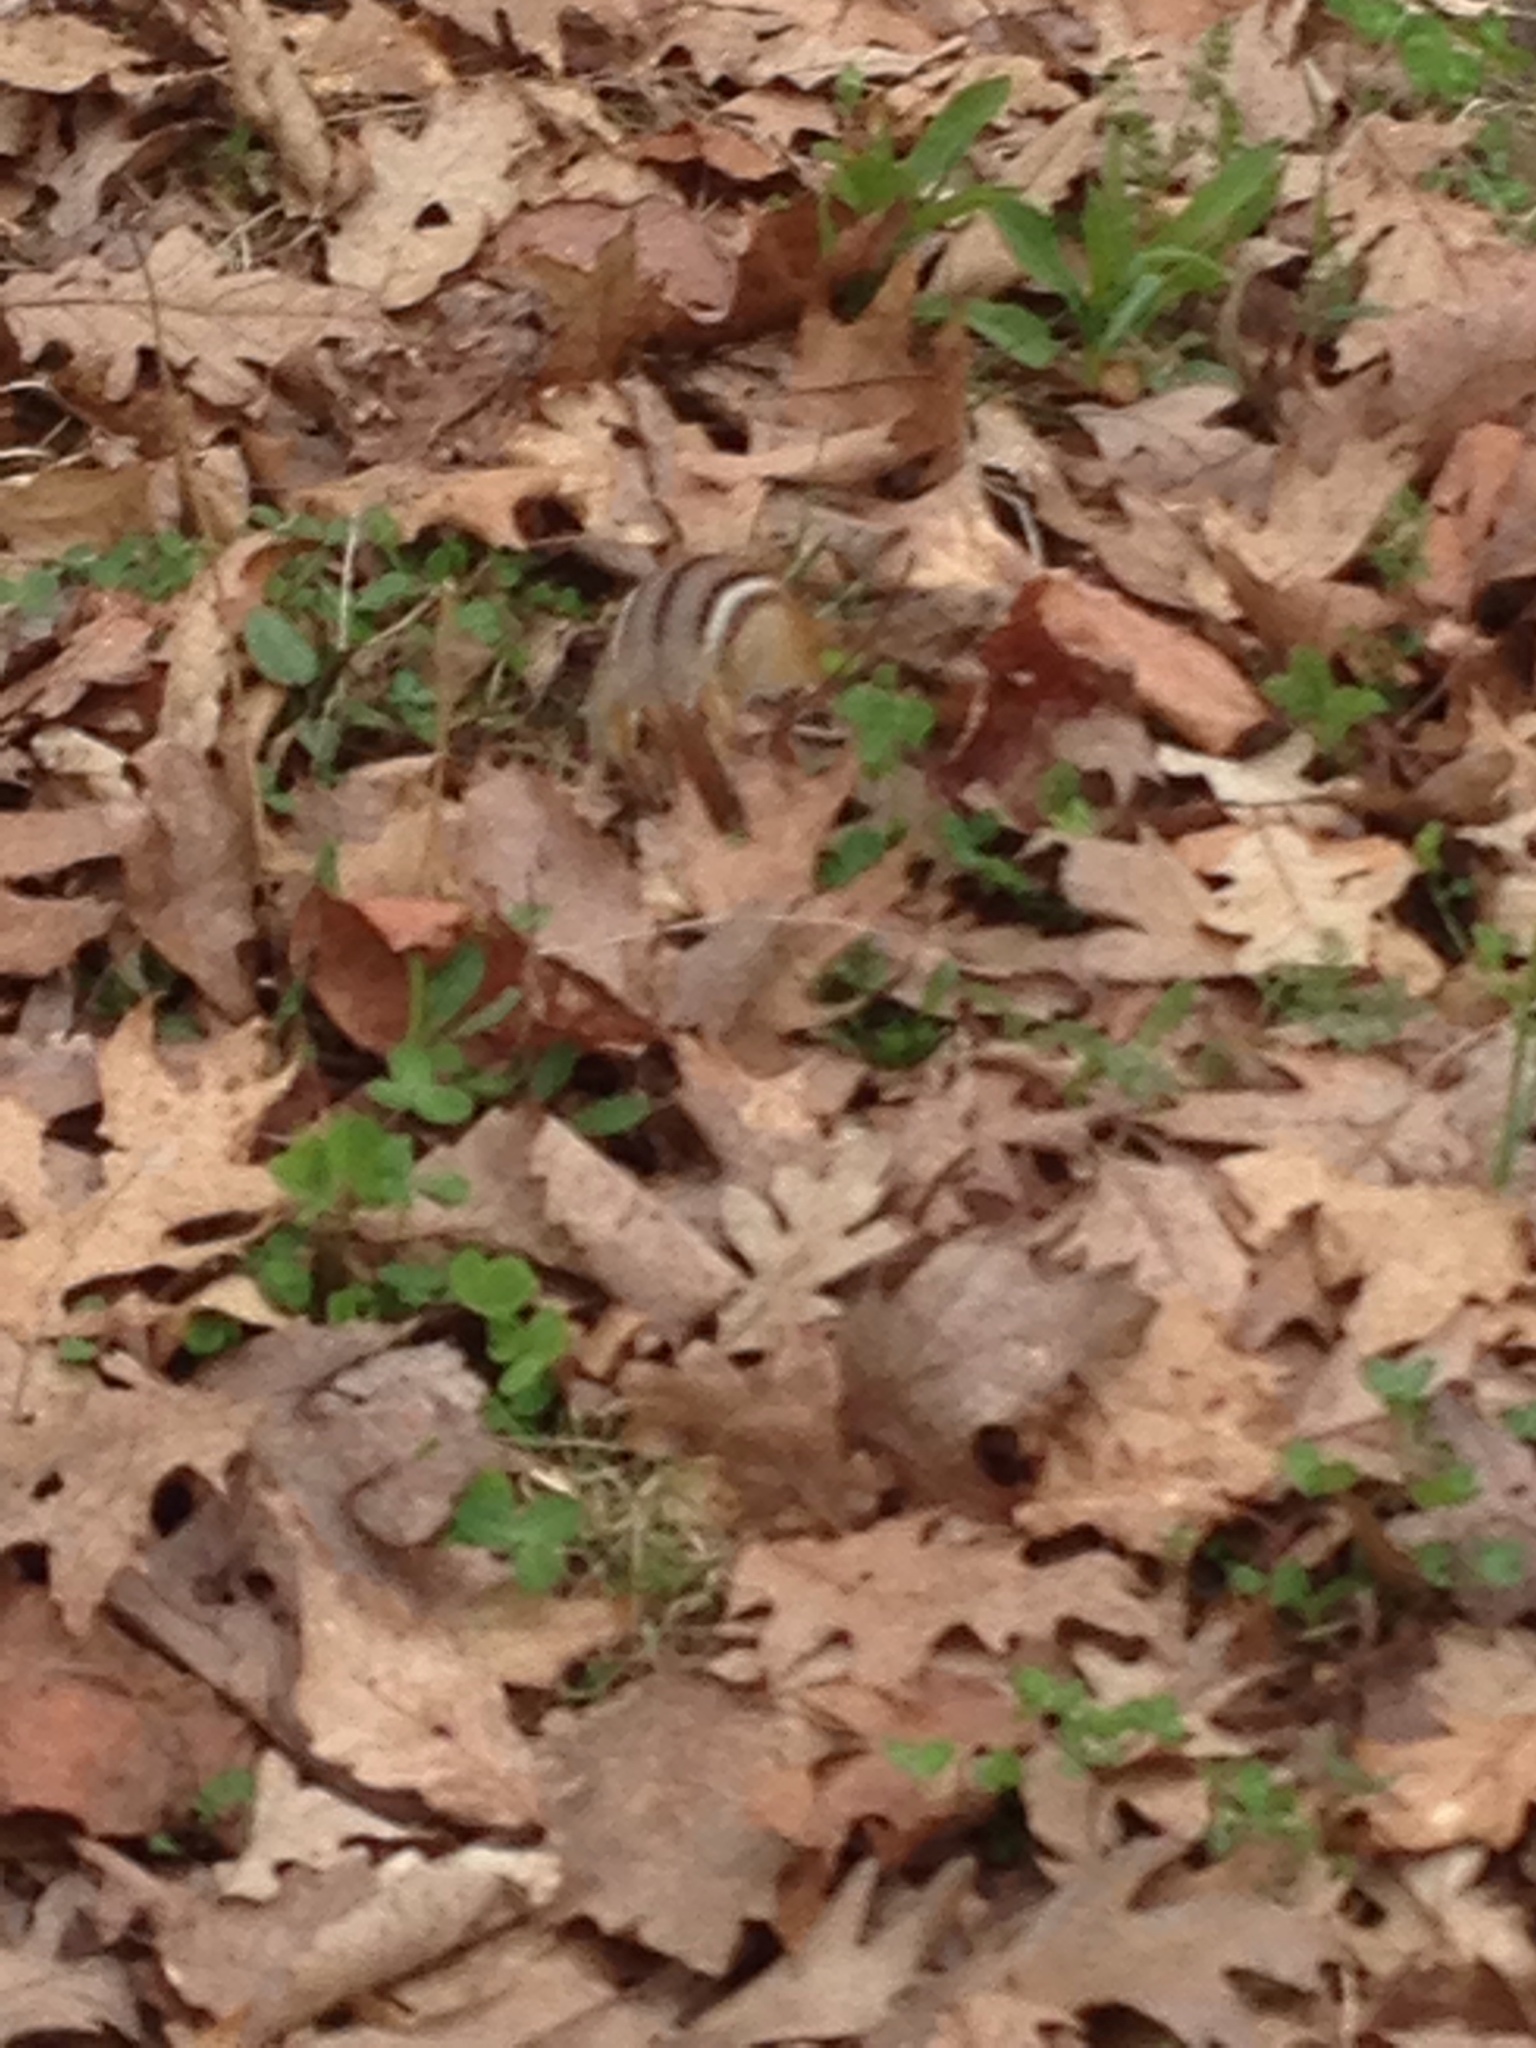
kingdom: Animalia
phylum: Chordata
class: Mammalia
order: Rodentia
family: Sciuridae
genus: Tamias
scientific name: Tamias striatus
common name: Eastern chipmunk
